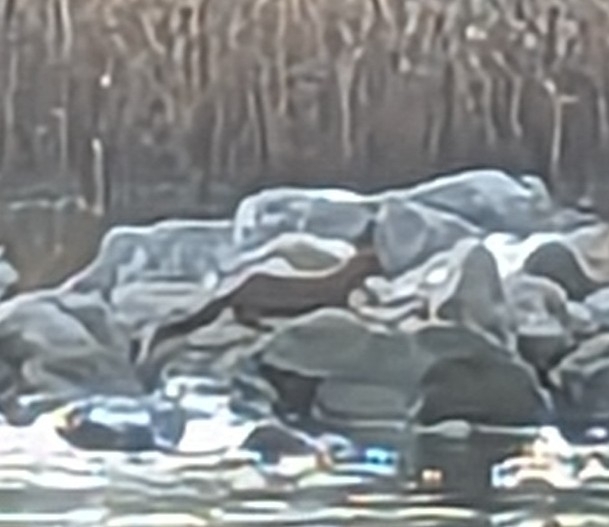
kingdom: Animalia
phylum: Chordata
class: Mammalia
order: Carnivora
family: Mustelidae
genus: Mustela
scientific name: Mustela
